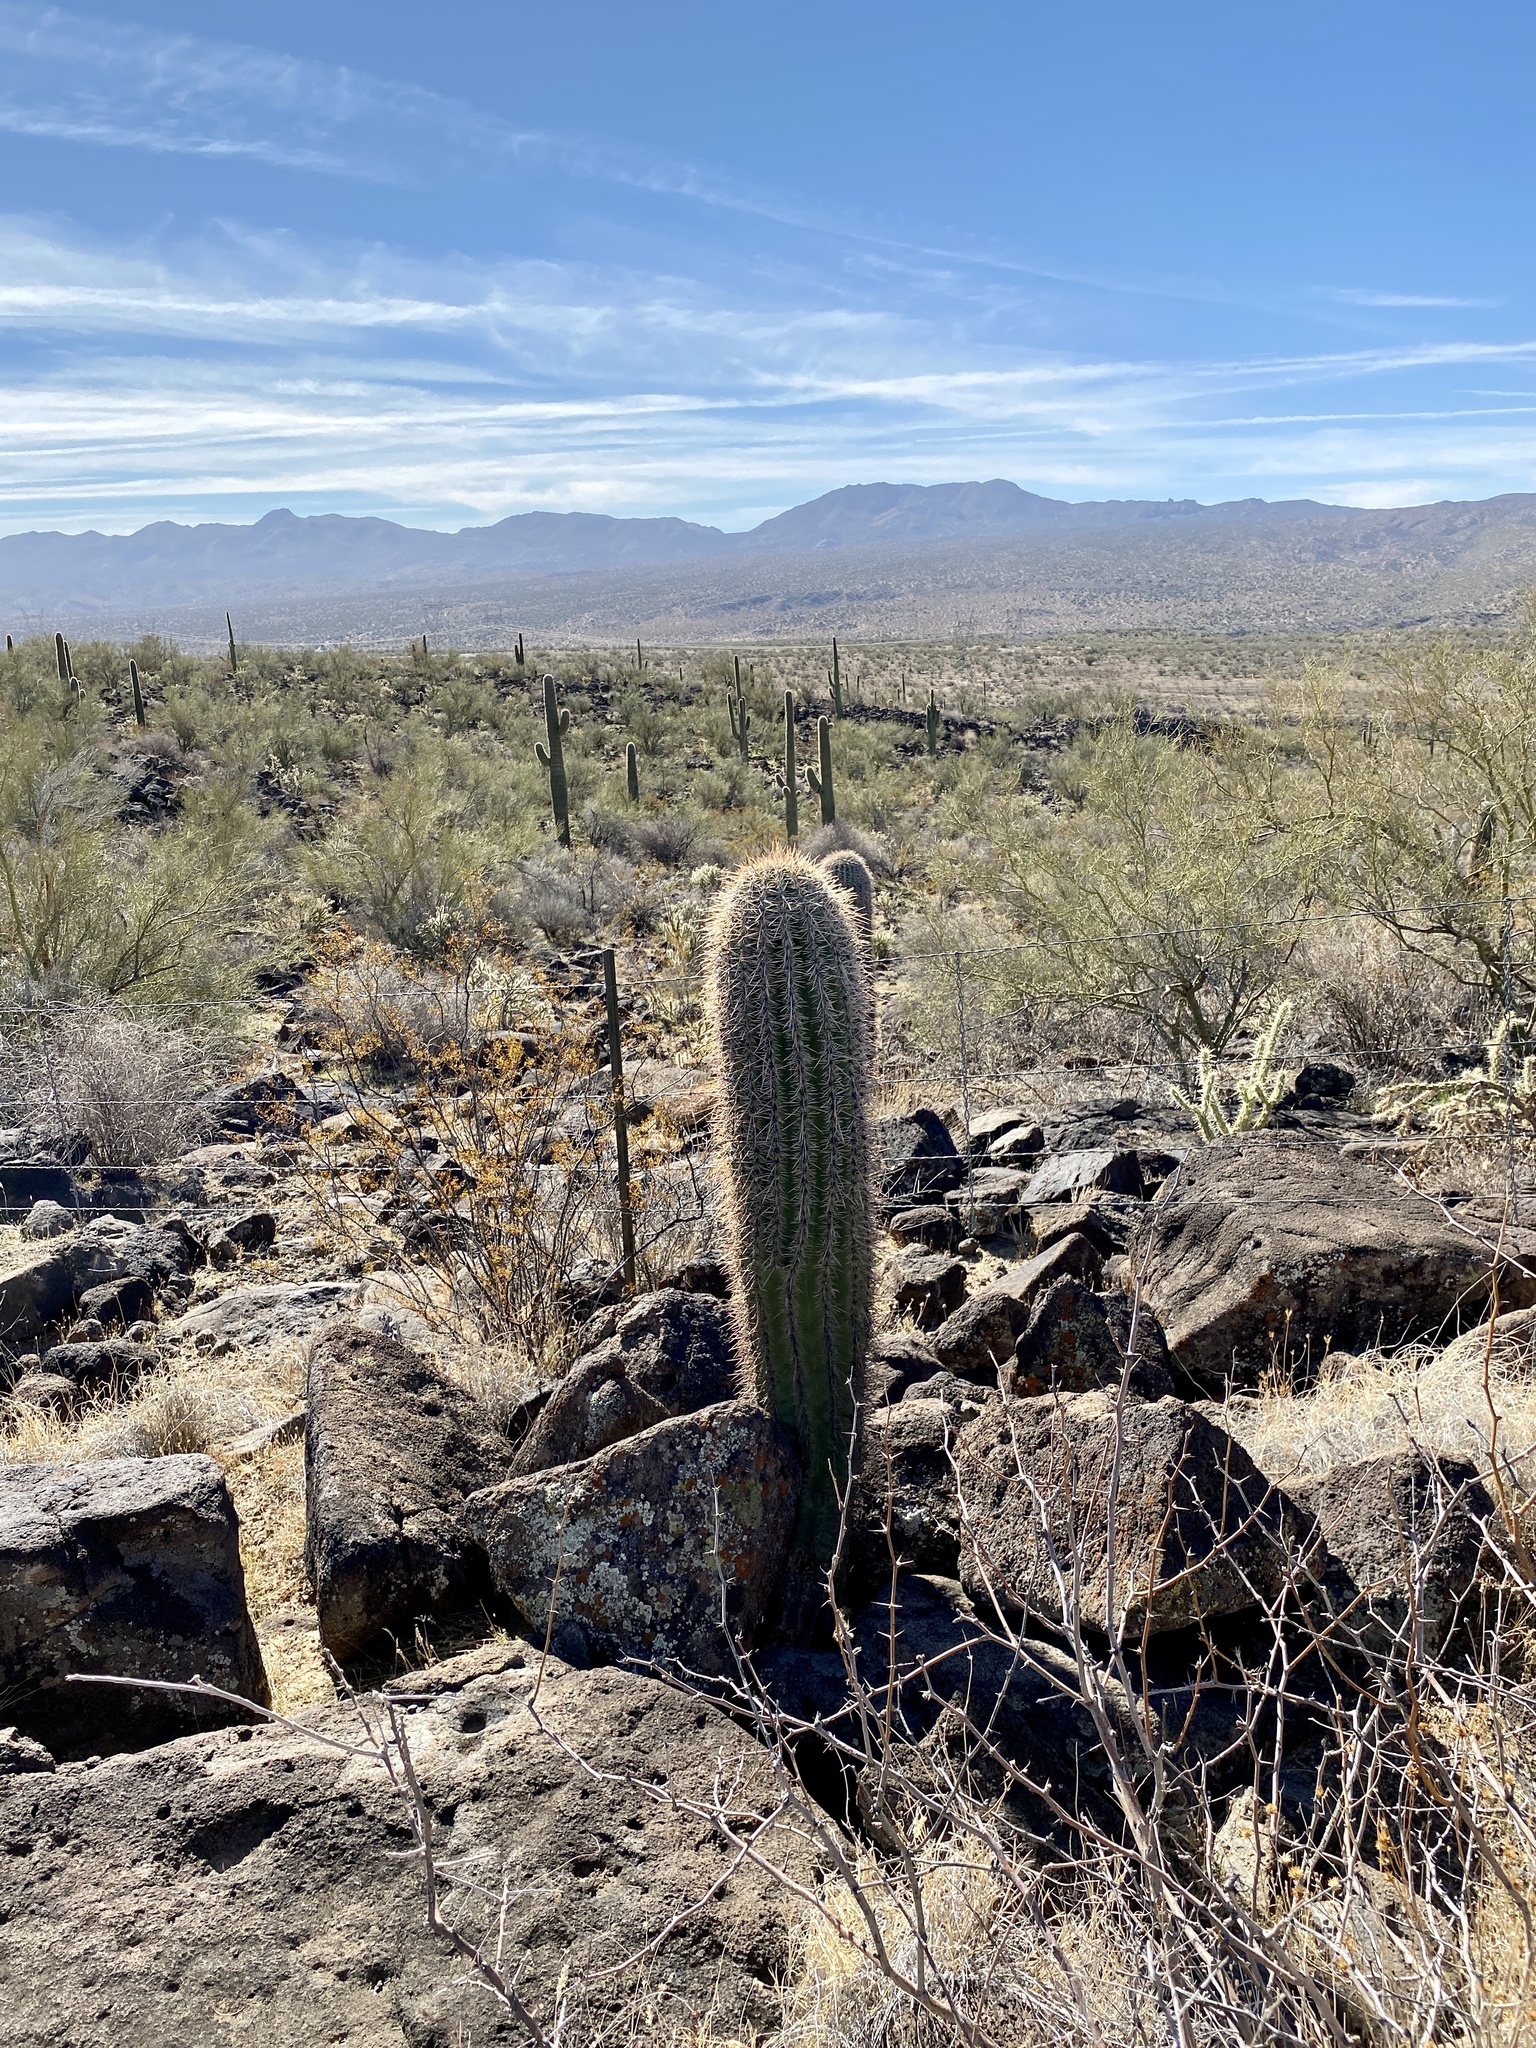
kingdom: Plantae
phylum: Tracheophyta
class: Magnoliopsida
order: Caryophyllales
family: Cactaceae
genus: Carnegiea
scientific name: Carnegiea gigantea
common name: Saguaro
